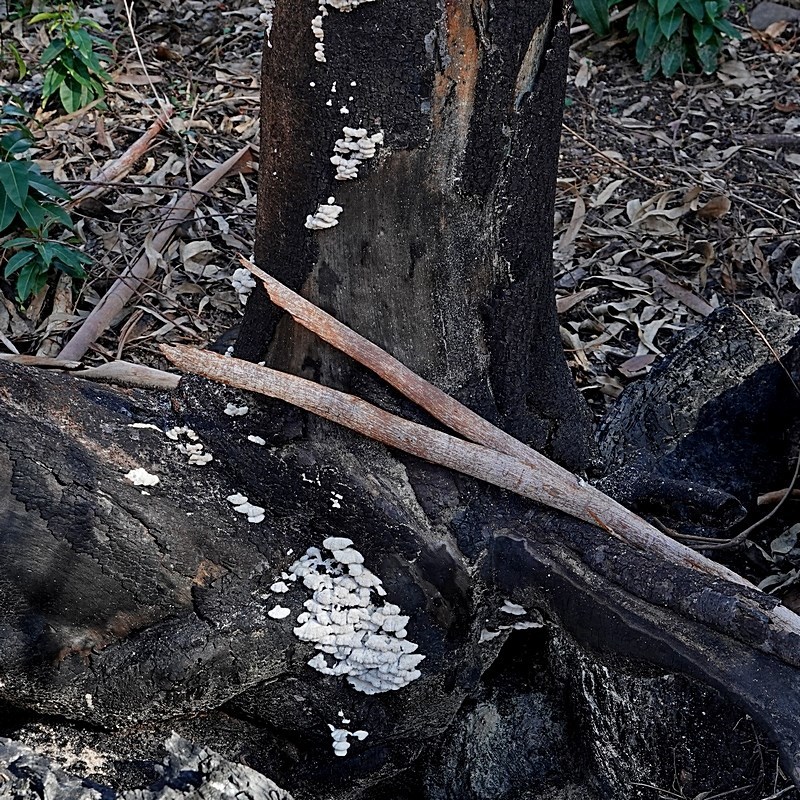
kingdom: Fungi
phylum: Basidiomycota
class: Agaricomycetes
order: Agaricales
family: Schizophyllaceae
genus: Schizophyllum
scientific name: Schizophyllum commune
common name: Common porecrust
